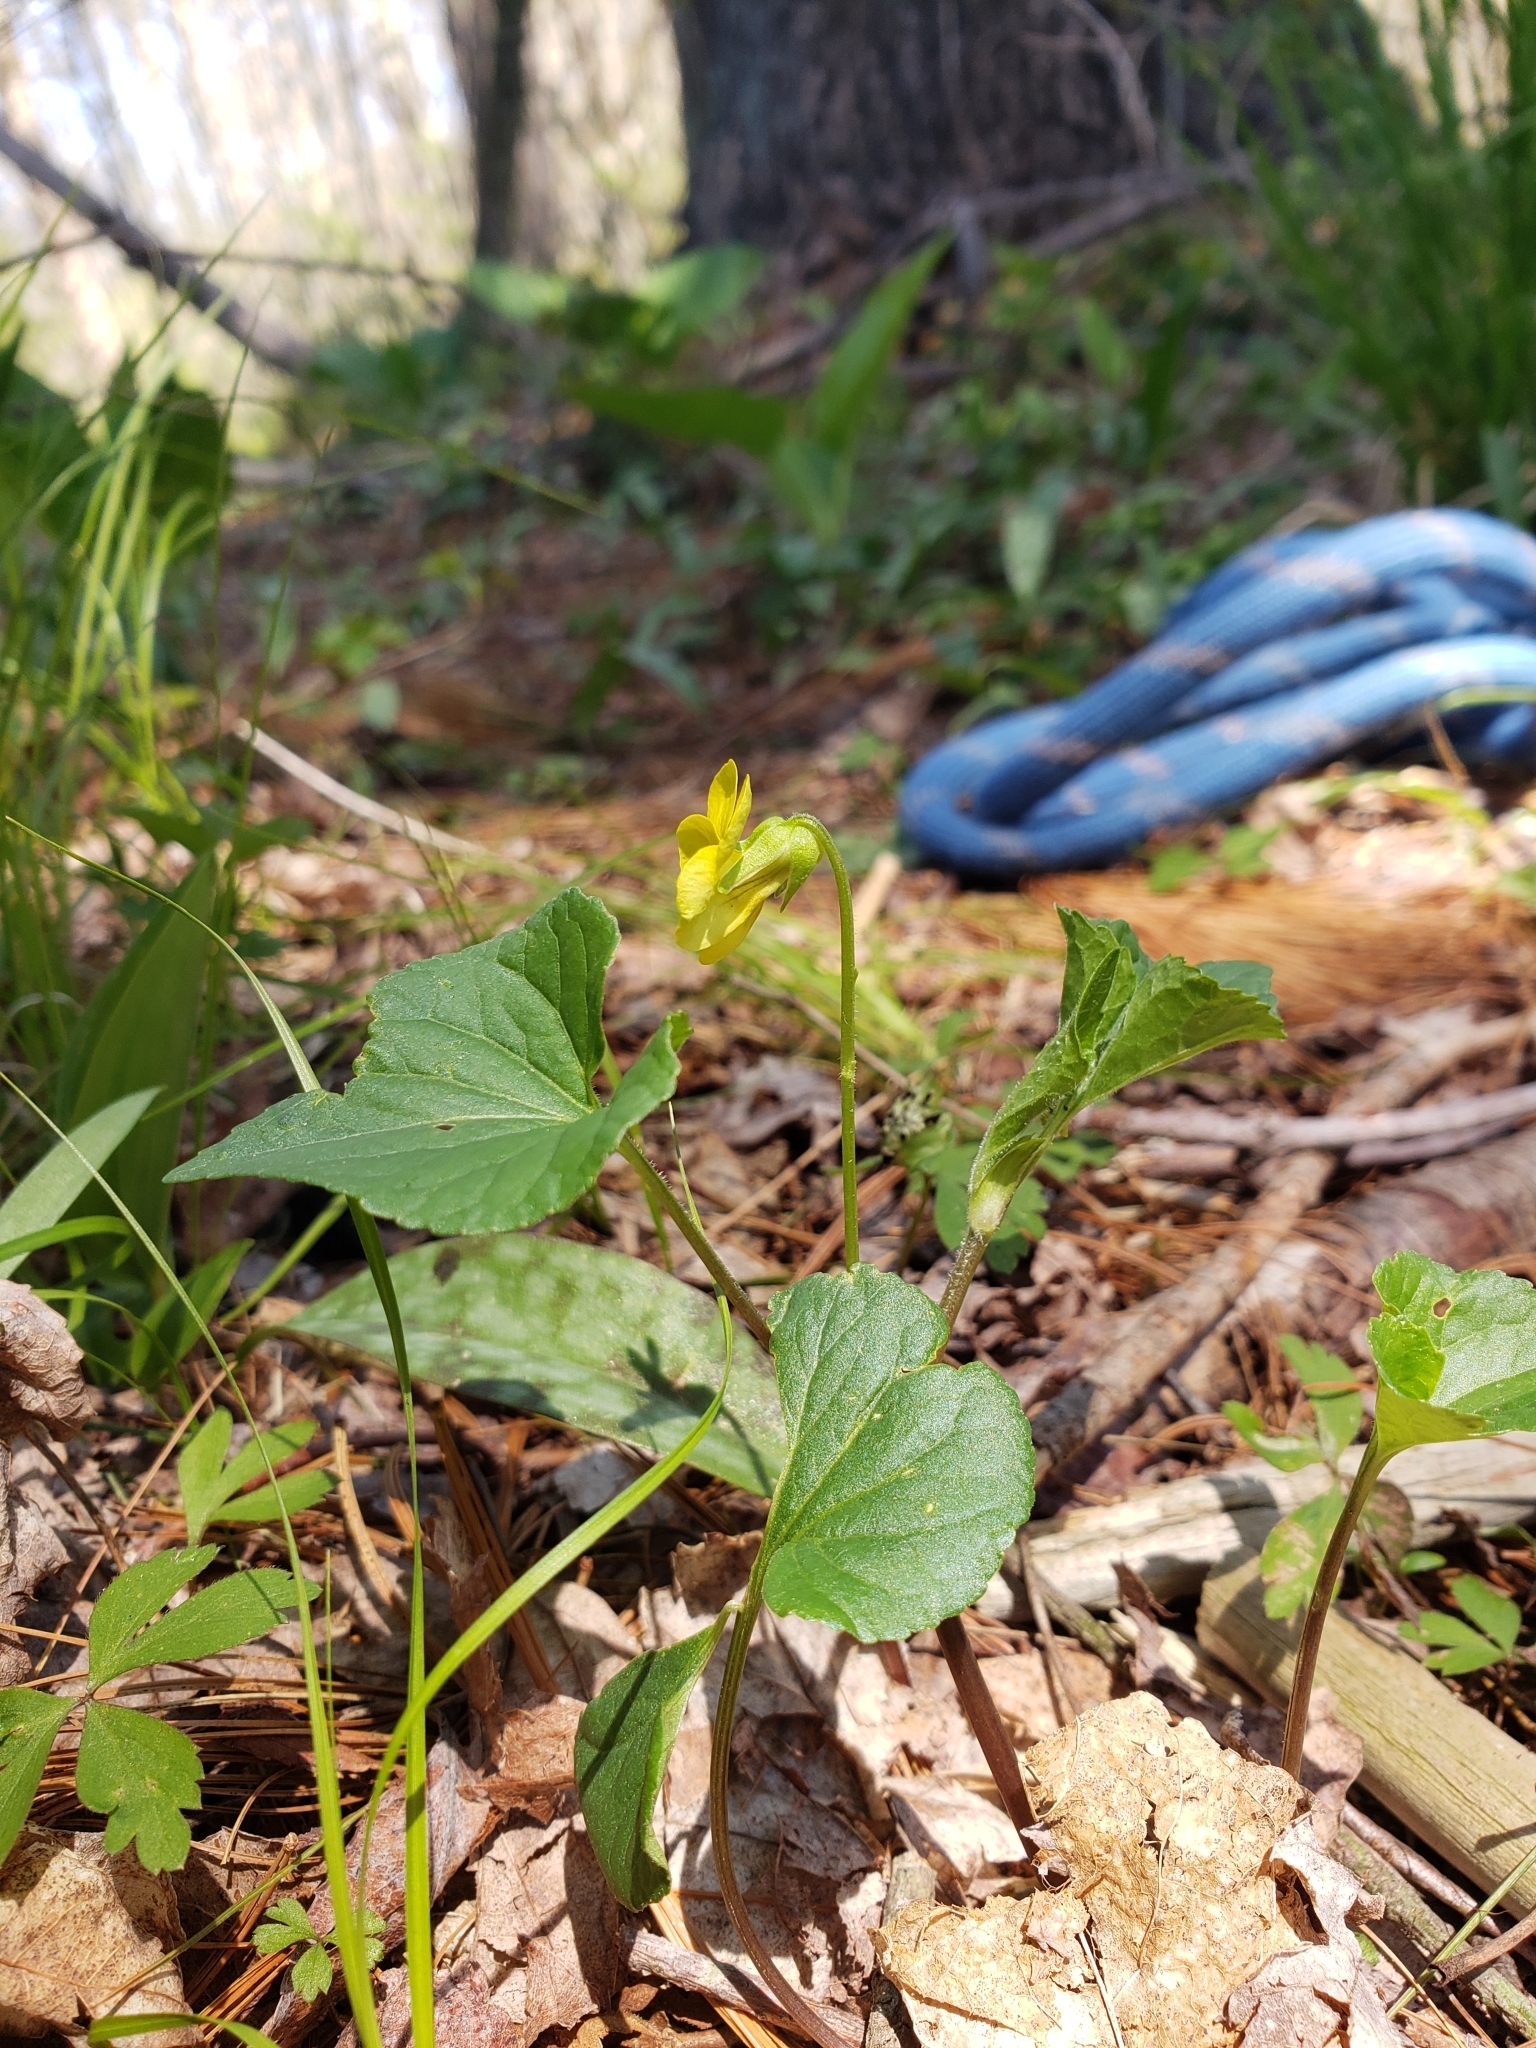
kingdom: Plantae
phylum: Tracheophyta
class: Magnoliopsida
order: Malpighiales
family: Violaceae
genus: Viola
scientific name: Viola eriocarpa
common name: Smooth yellow violet
